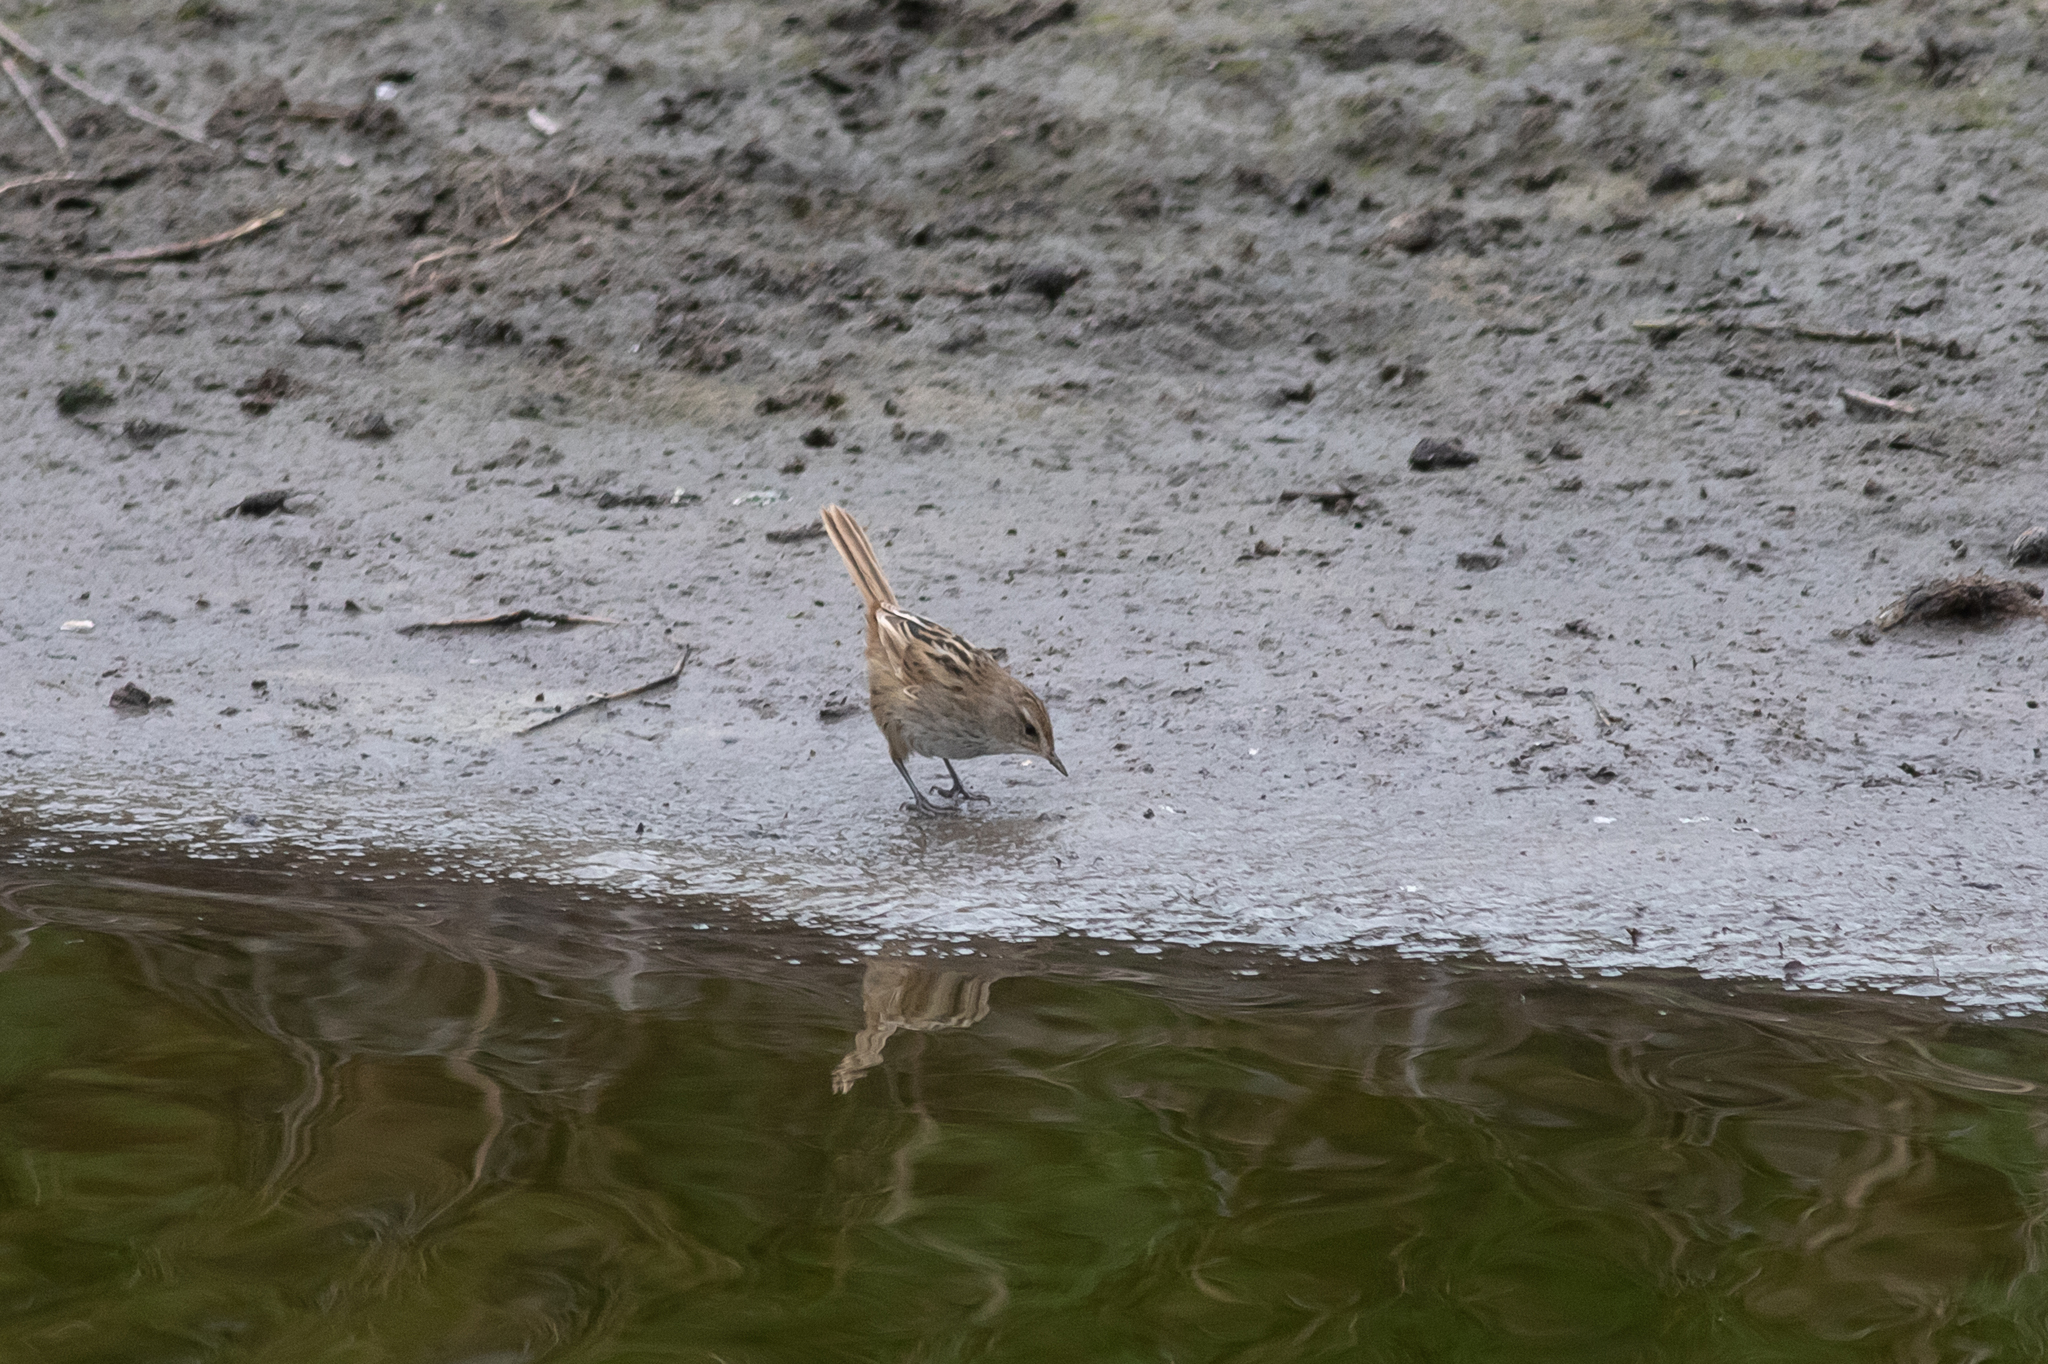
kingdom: Animalia
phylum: Chordata
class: Aves
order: Passeriformes
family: Locustellidae
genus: Megalurus
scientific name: Megalurus gramineus
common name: Little grassbird
